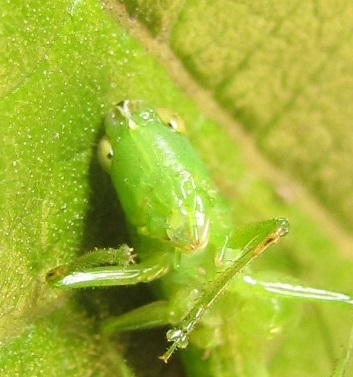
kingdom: Animalia
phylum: Arthropoda
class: Insecta
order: Orthoptera
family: Tettigoniidae
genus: Conocephalus
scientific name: Conocephalus fasciatus
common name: Slender meadow katydid
